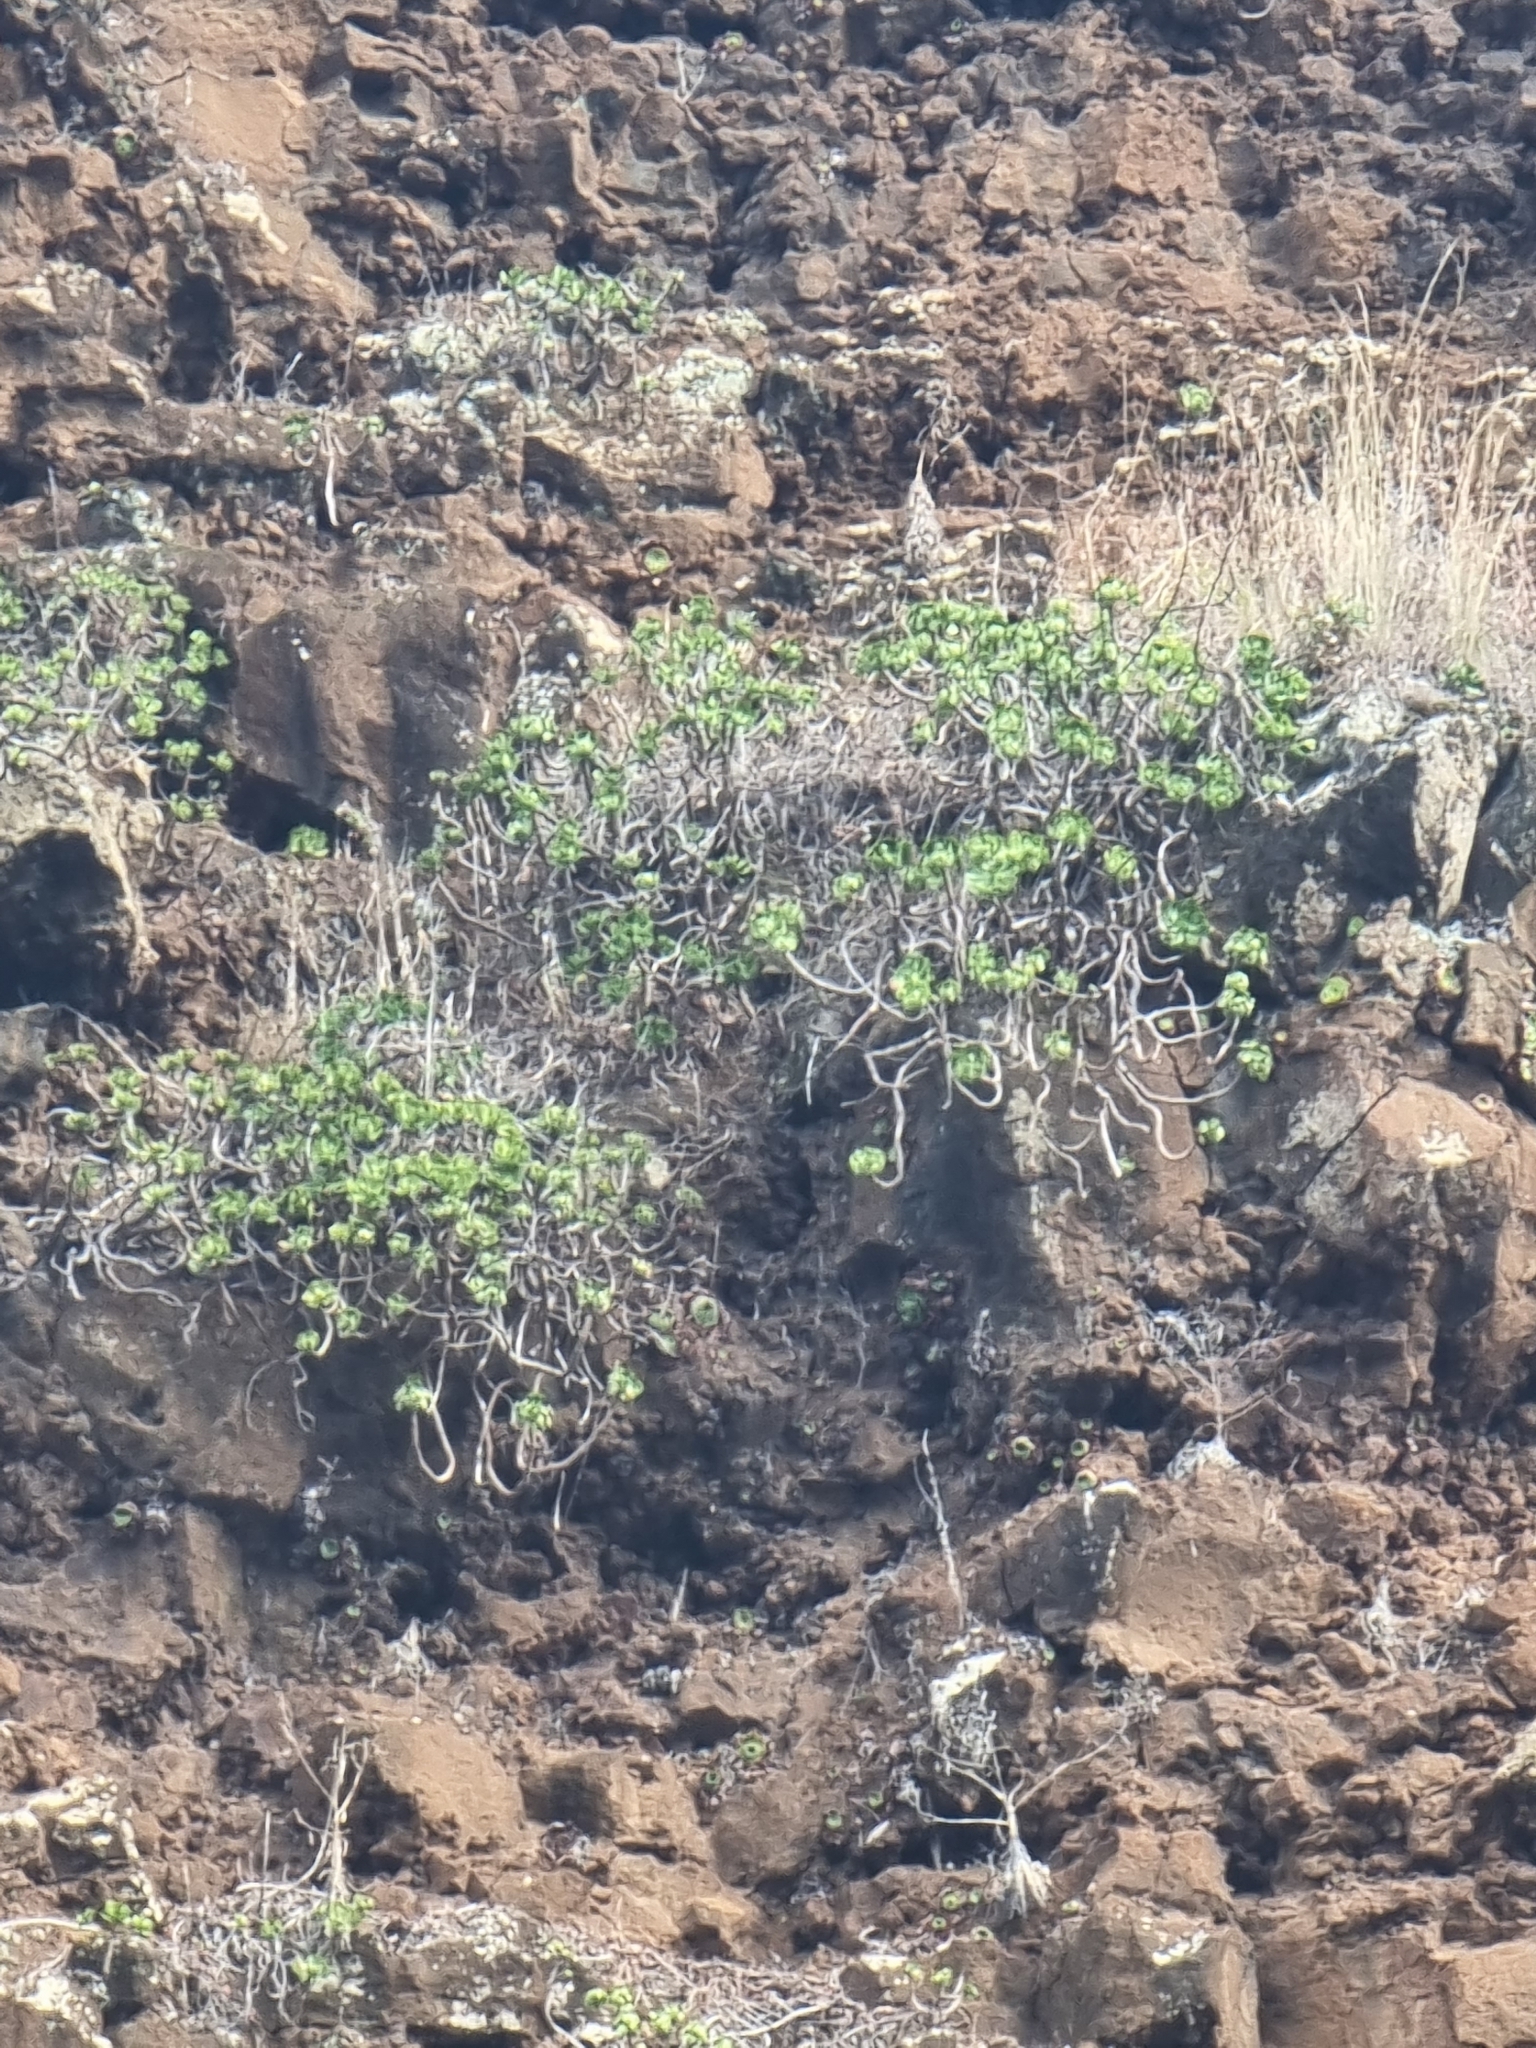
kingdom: Plantae
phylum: Tracheophyta
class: Magnoliopsida
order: Saxifragales
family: Crassulaceae
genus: Aeonium
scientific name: Aeonium glutinosum
